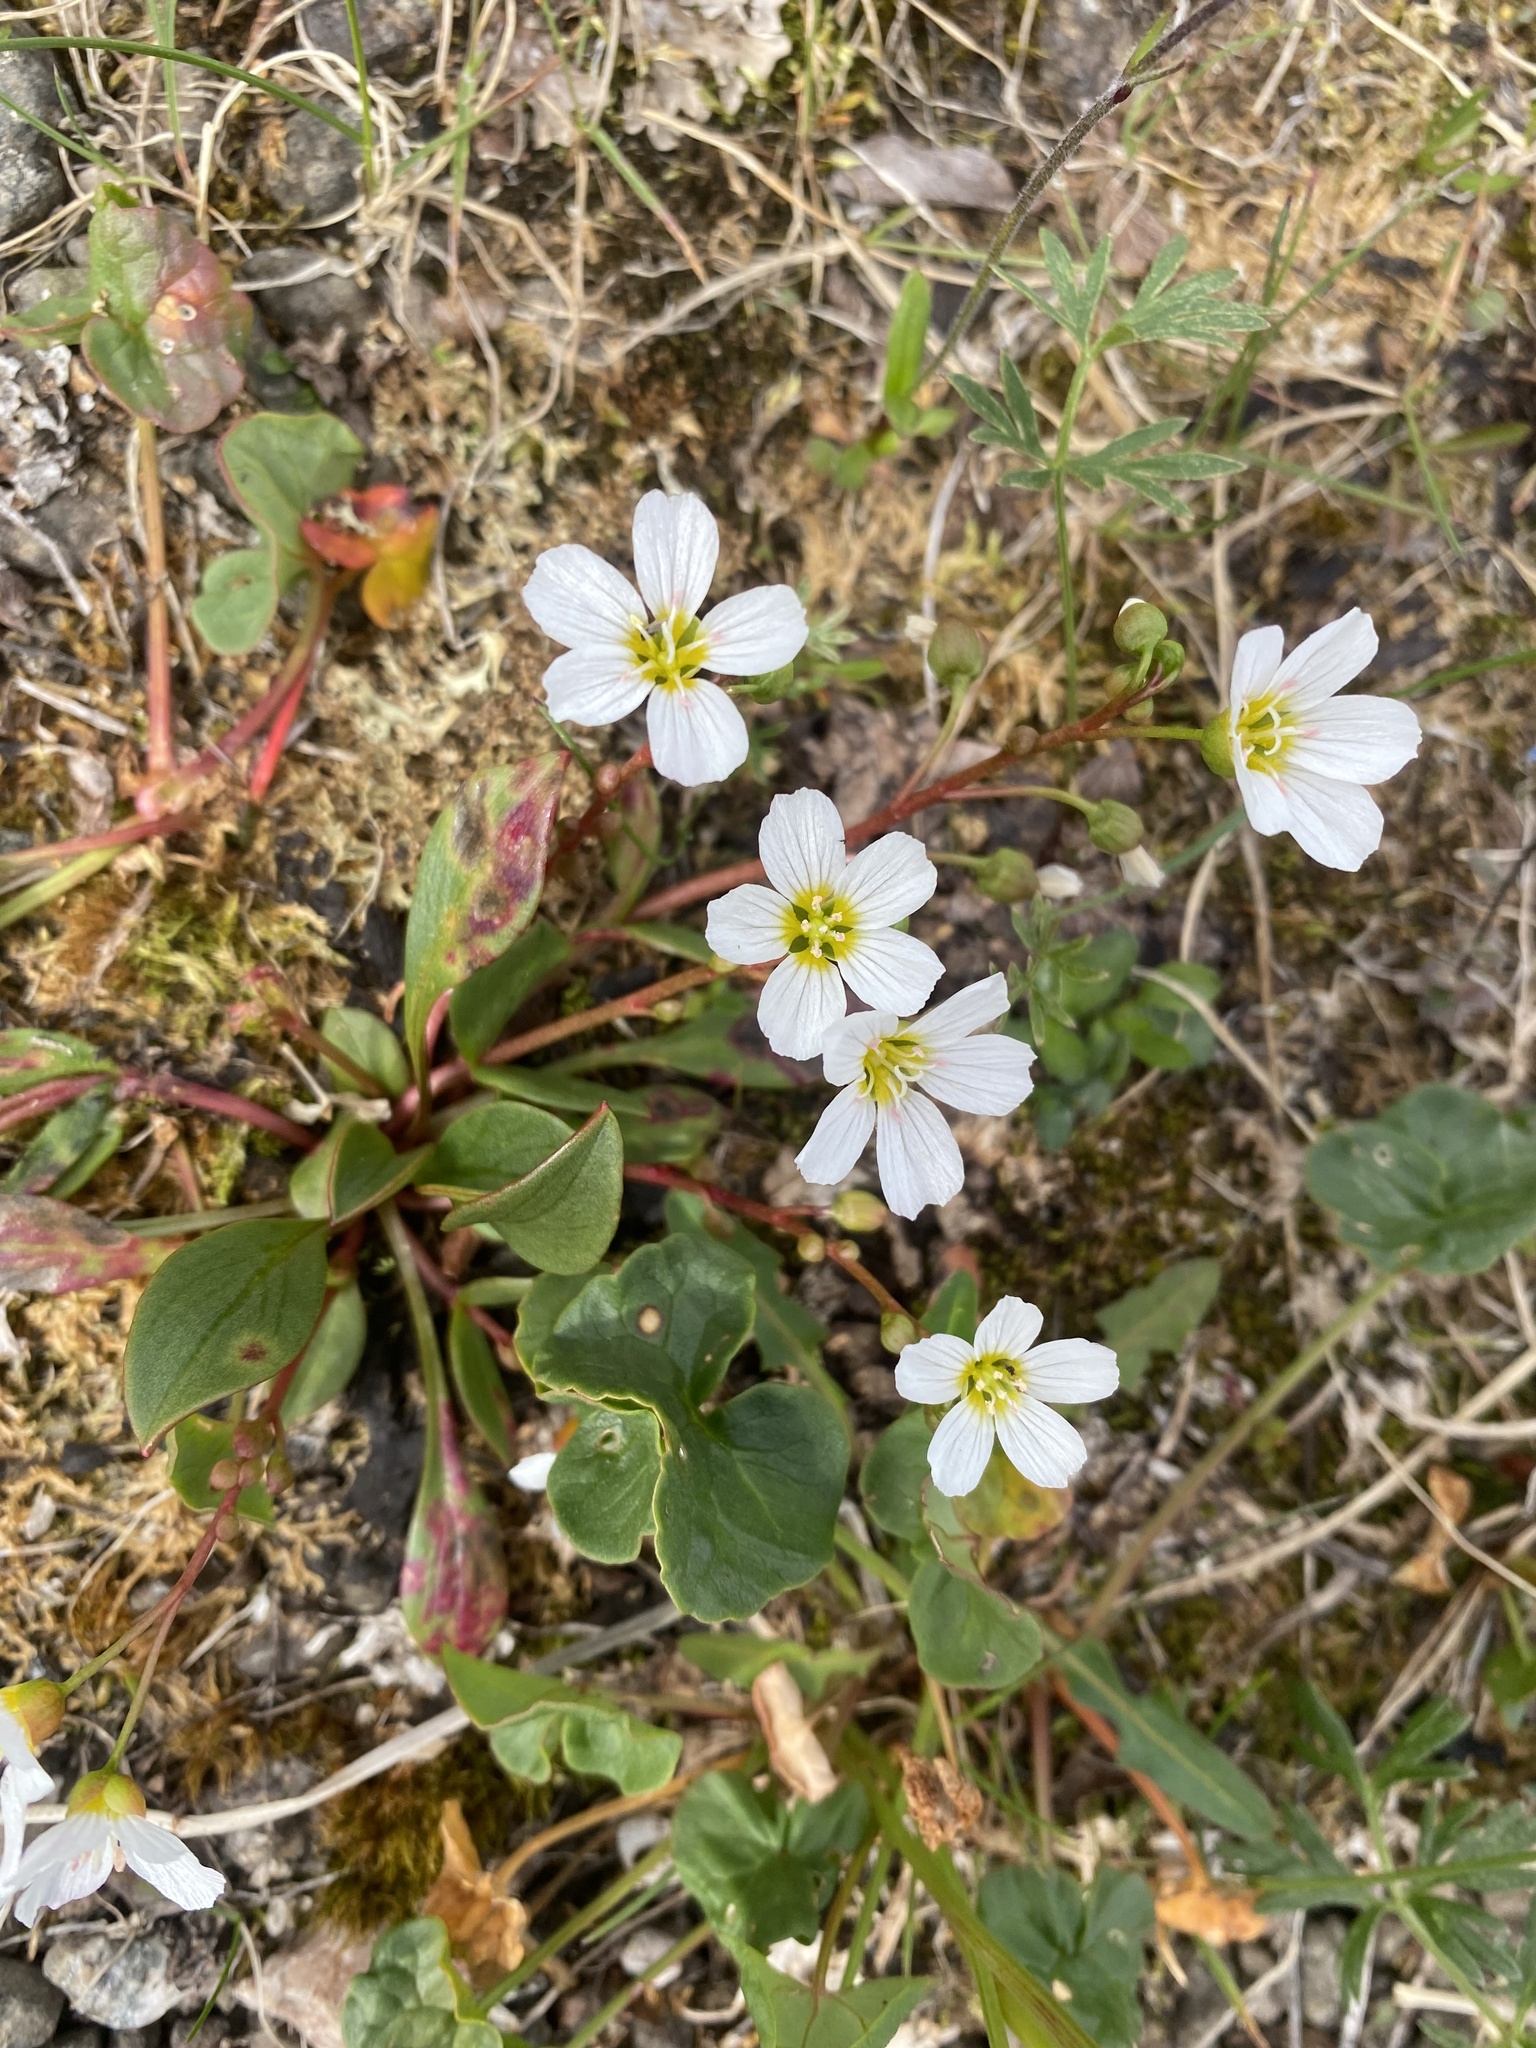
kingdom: Plantae
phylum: Tracheophyta
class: Magnoliopsida
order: Caryophyllales
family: Montiaceae
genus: Claytonia
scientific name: Claytonia joanneana
